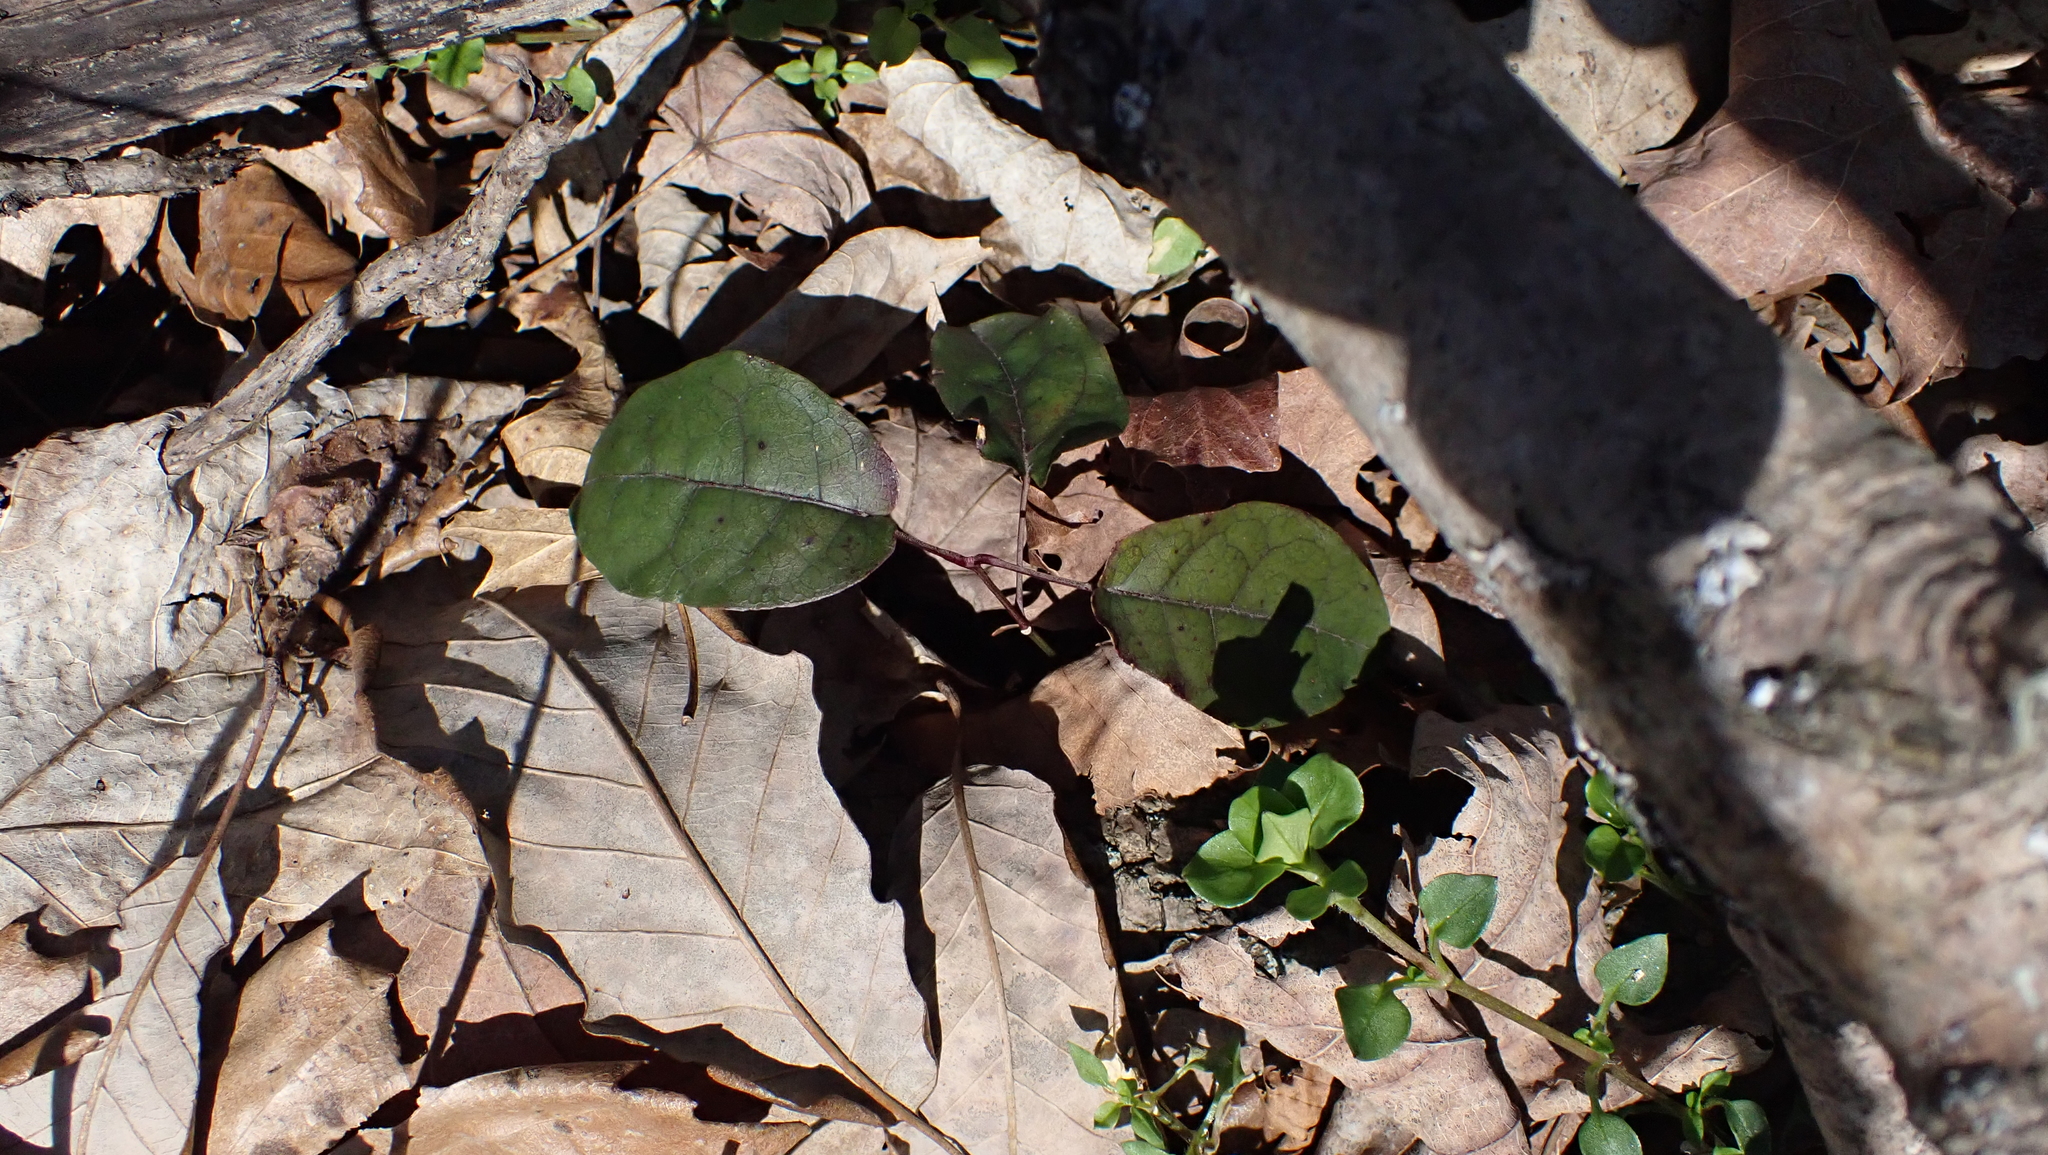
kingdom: Plantae
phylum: Tracheophyta
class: Magnoliopsida
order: Lamiales
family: Bignoniaceae
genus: Bignonia
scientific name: Bignonia capreolata
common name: Crossvine
